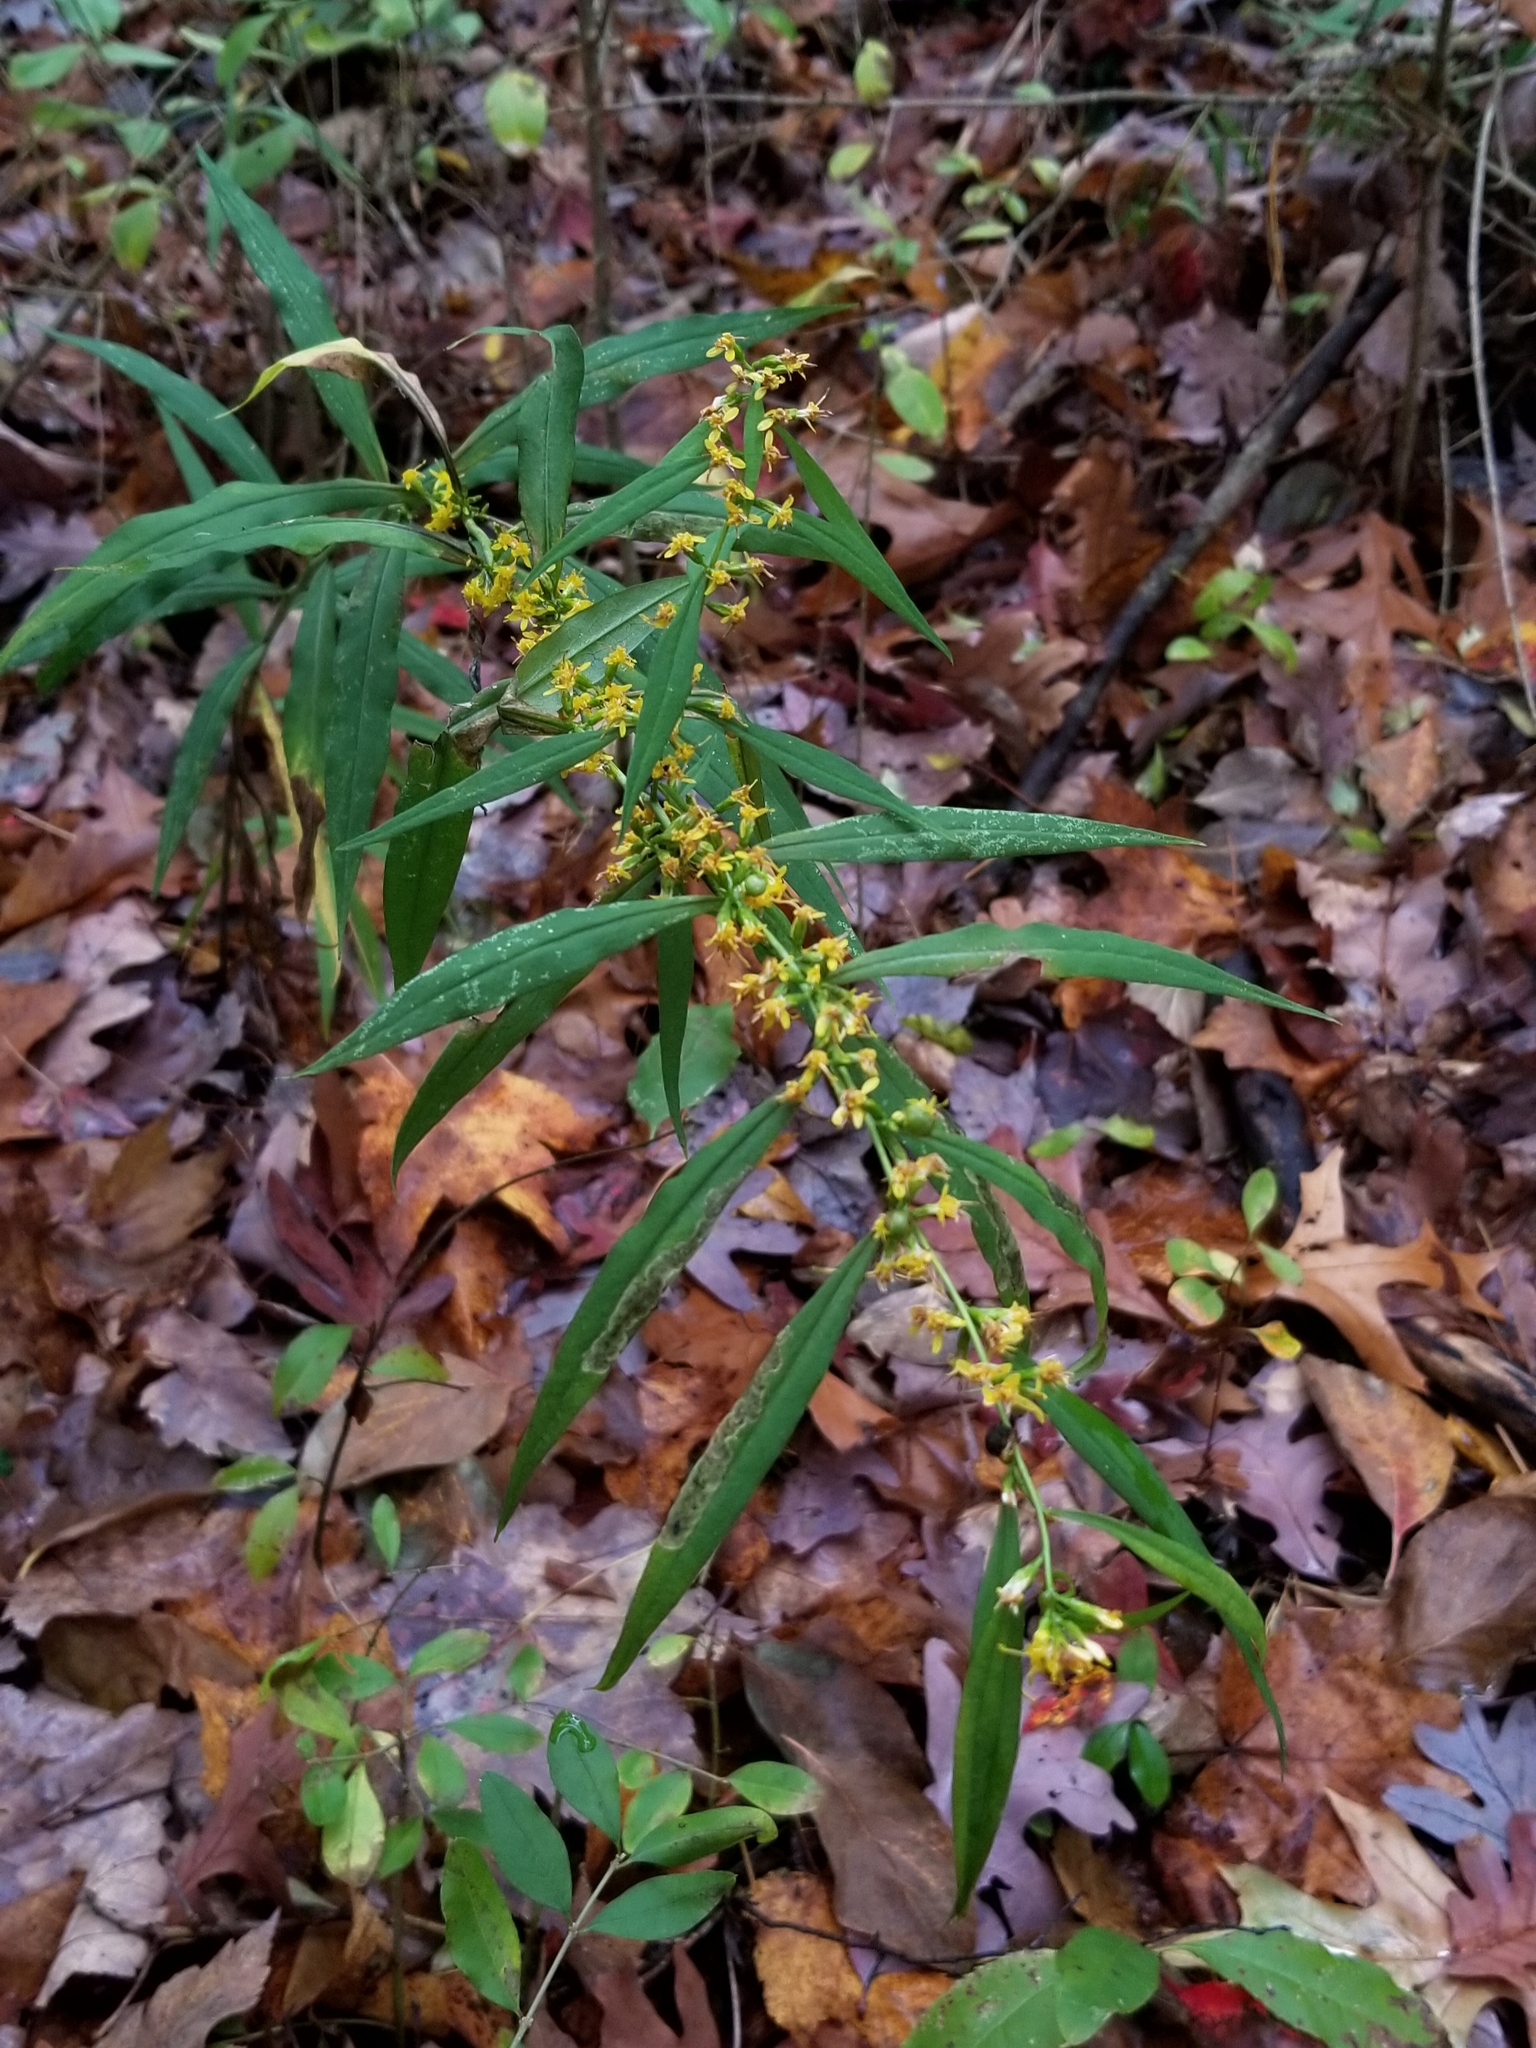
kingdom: Plantae
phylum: Tracheophyta
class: Magnoliopsida
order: Asterales
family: Asteraceae
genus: Solidago
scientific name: Solidago caesia
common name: Woodland goldenrod
